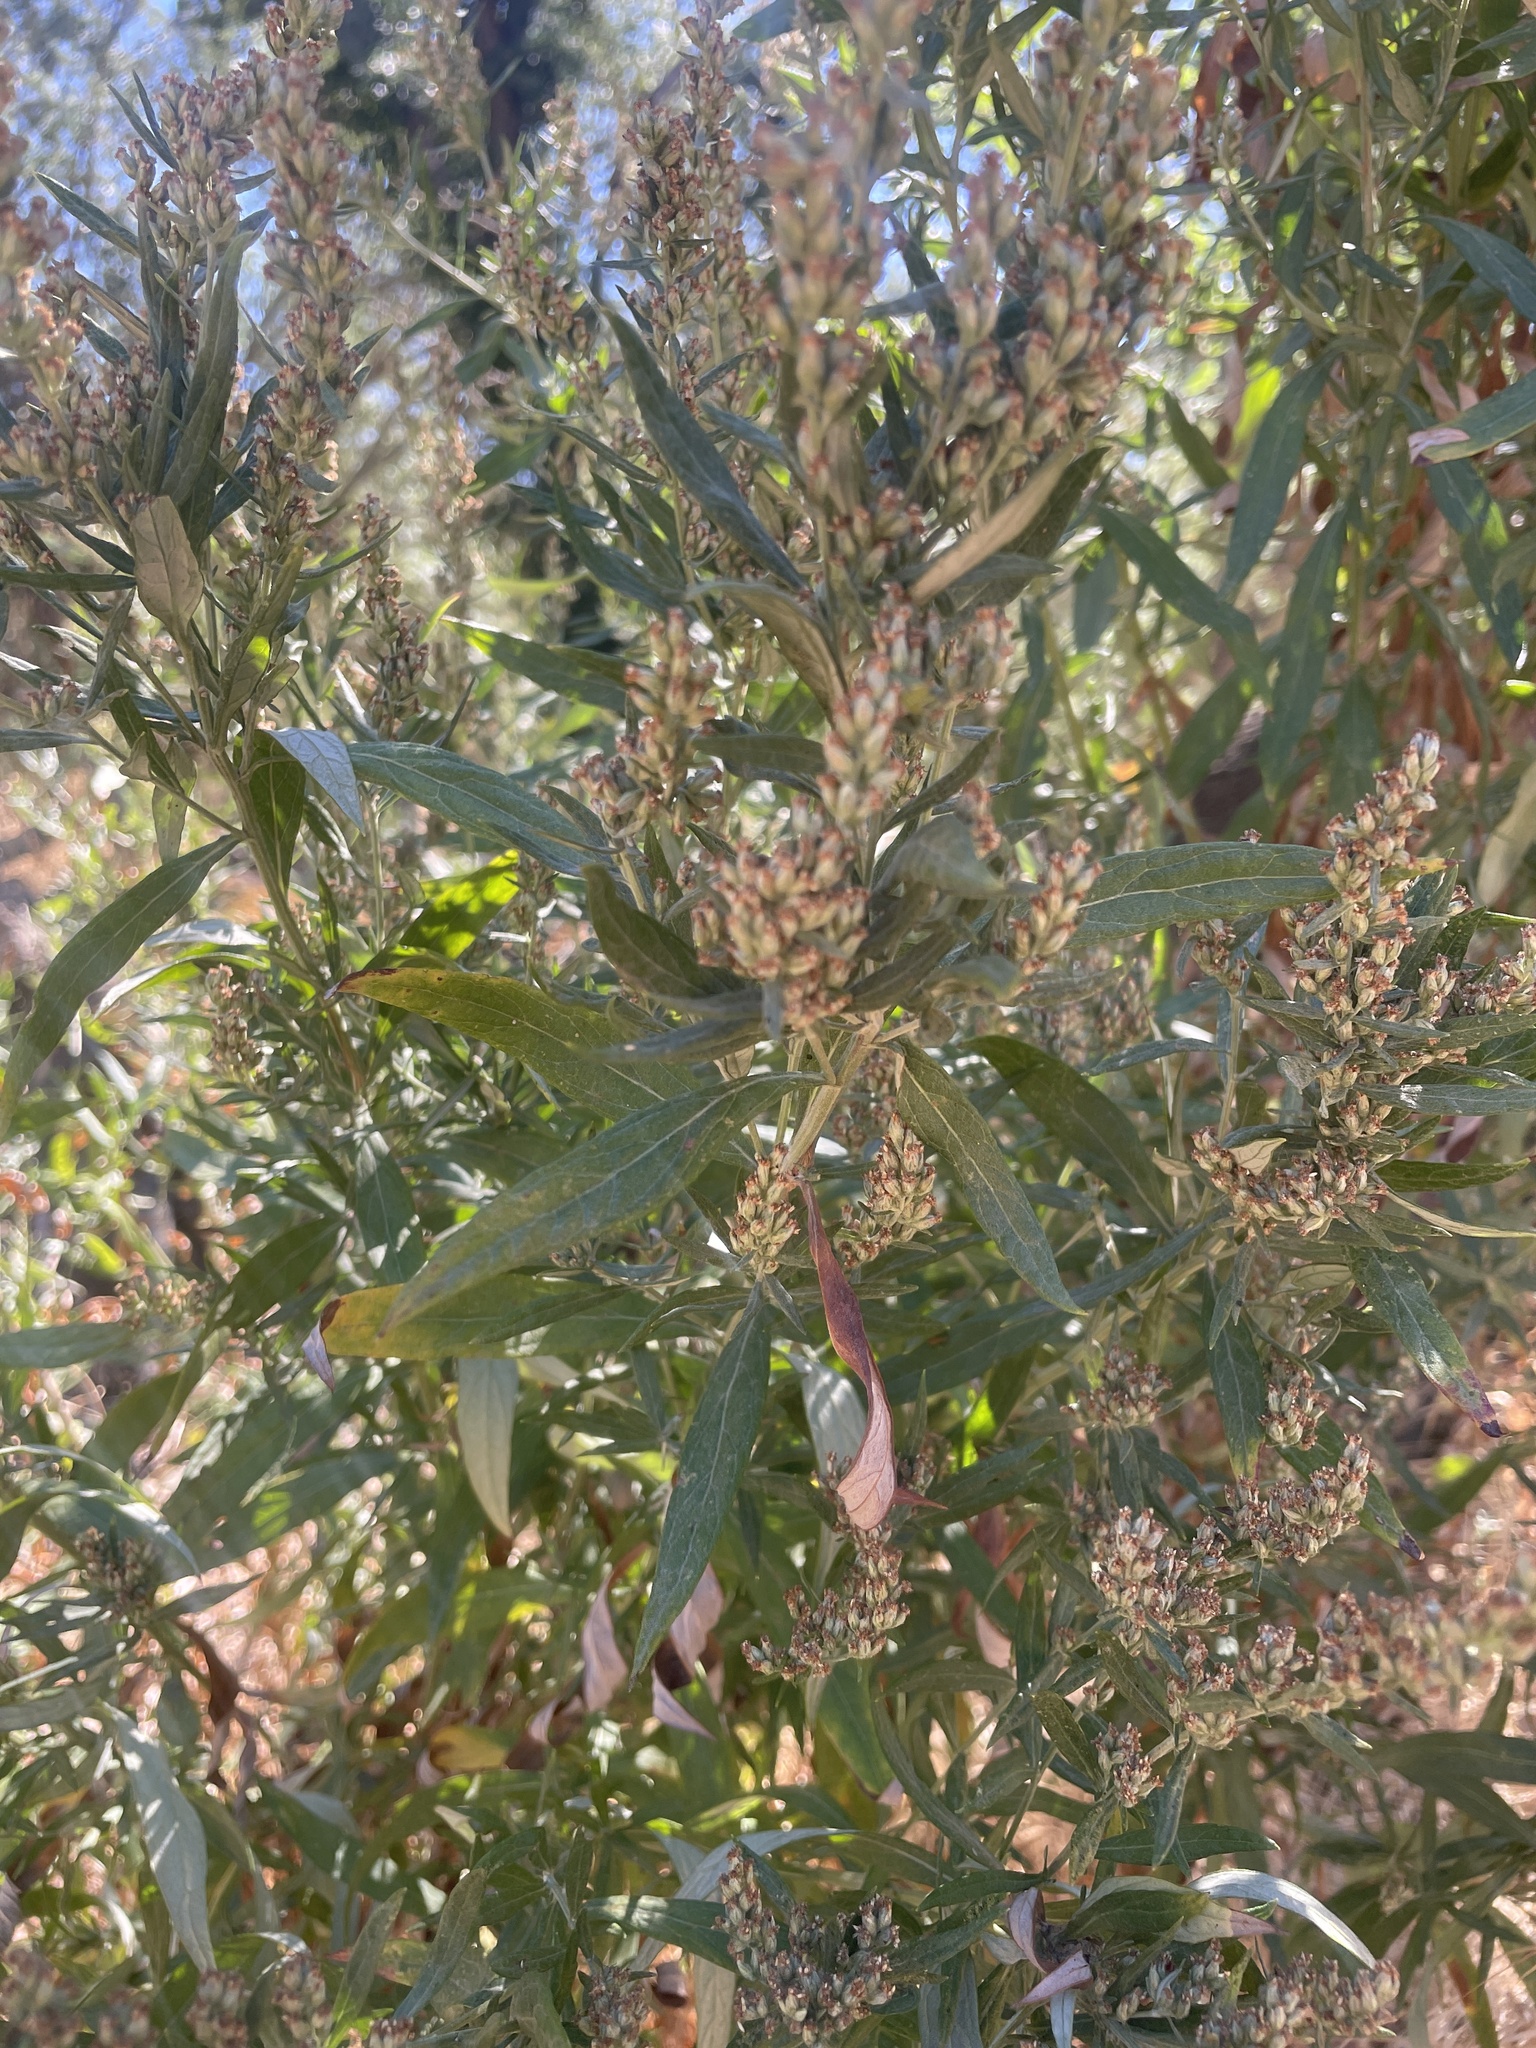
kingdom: Plantae
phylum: Tracheophyta
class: Magnoliopsida
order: Asterales
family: Asteraceae
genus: Artemisia
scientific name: Artemisia douglasiana
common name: Northwest mugwort
